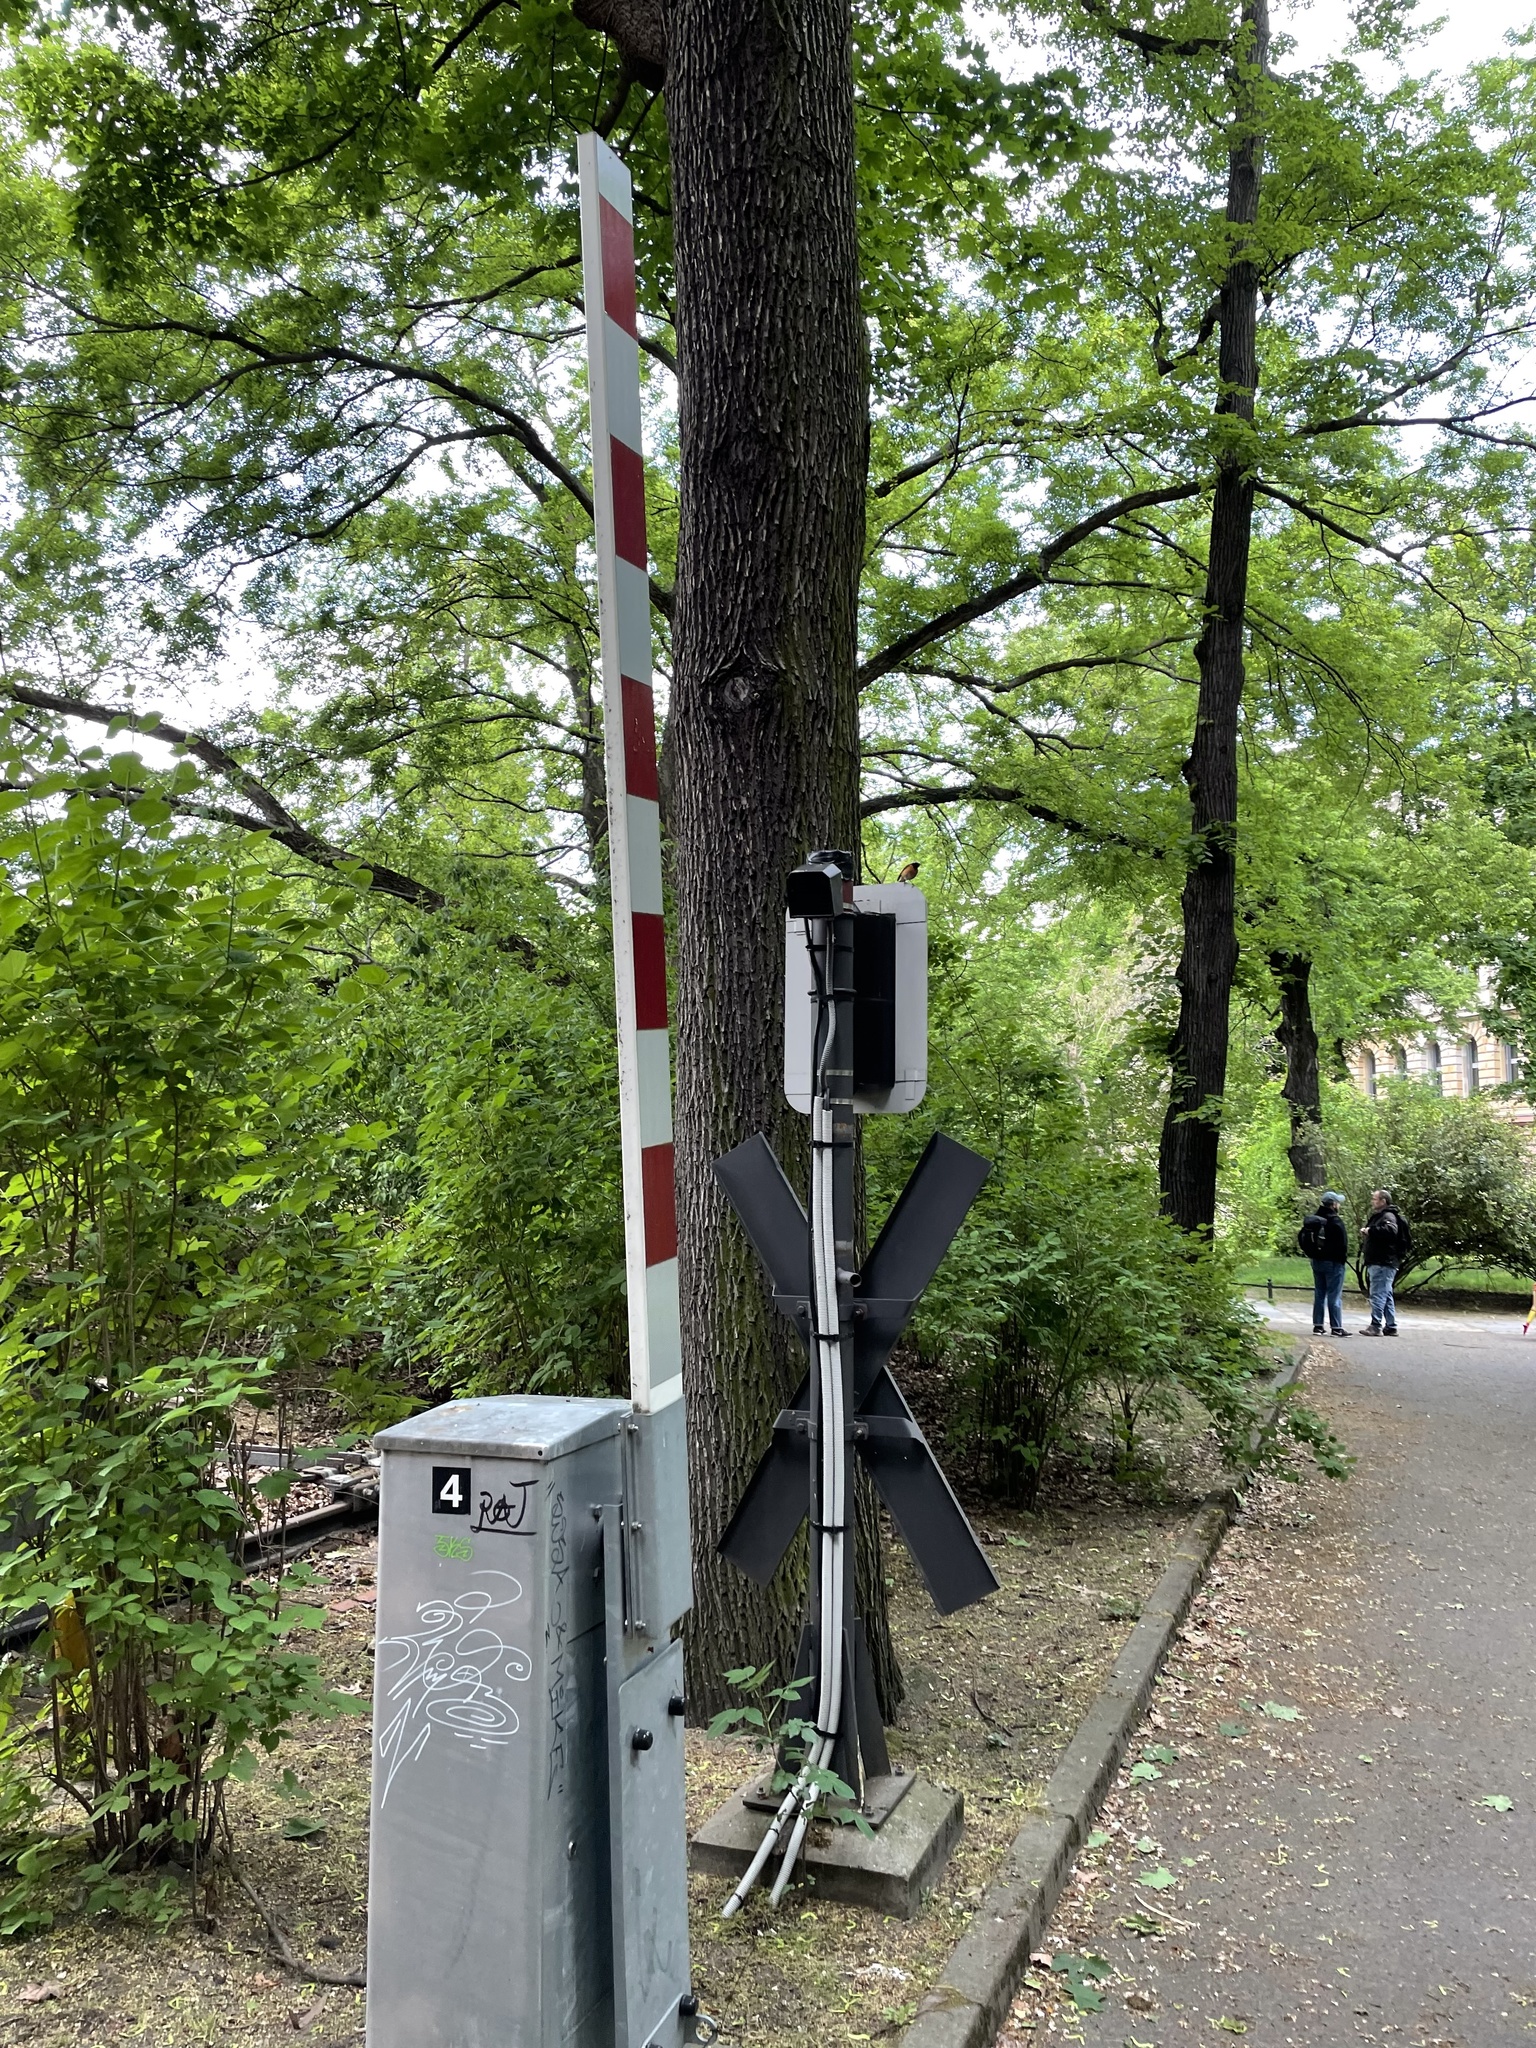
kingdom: Animalia
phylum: Chordata
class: Aves
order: Passeriformes
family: Muscicapidae
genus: Phoenicurus
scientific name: Phoenicurus phoenicurus
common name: Common redstart
